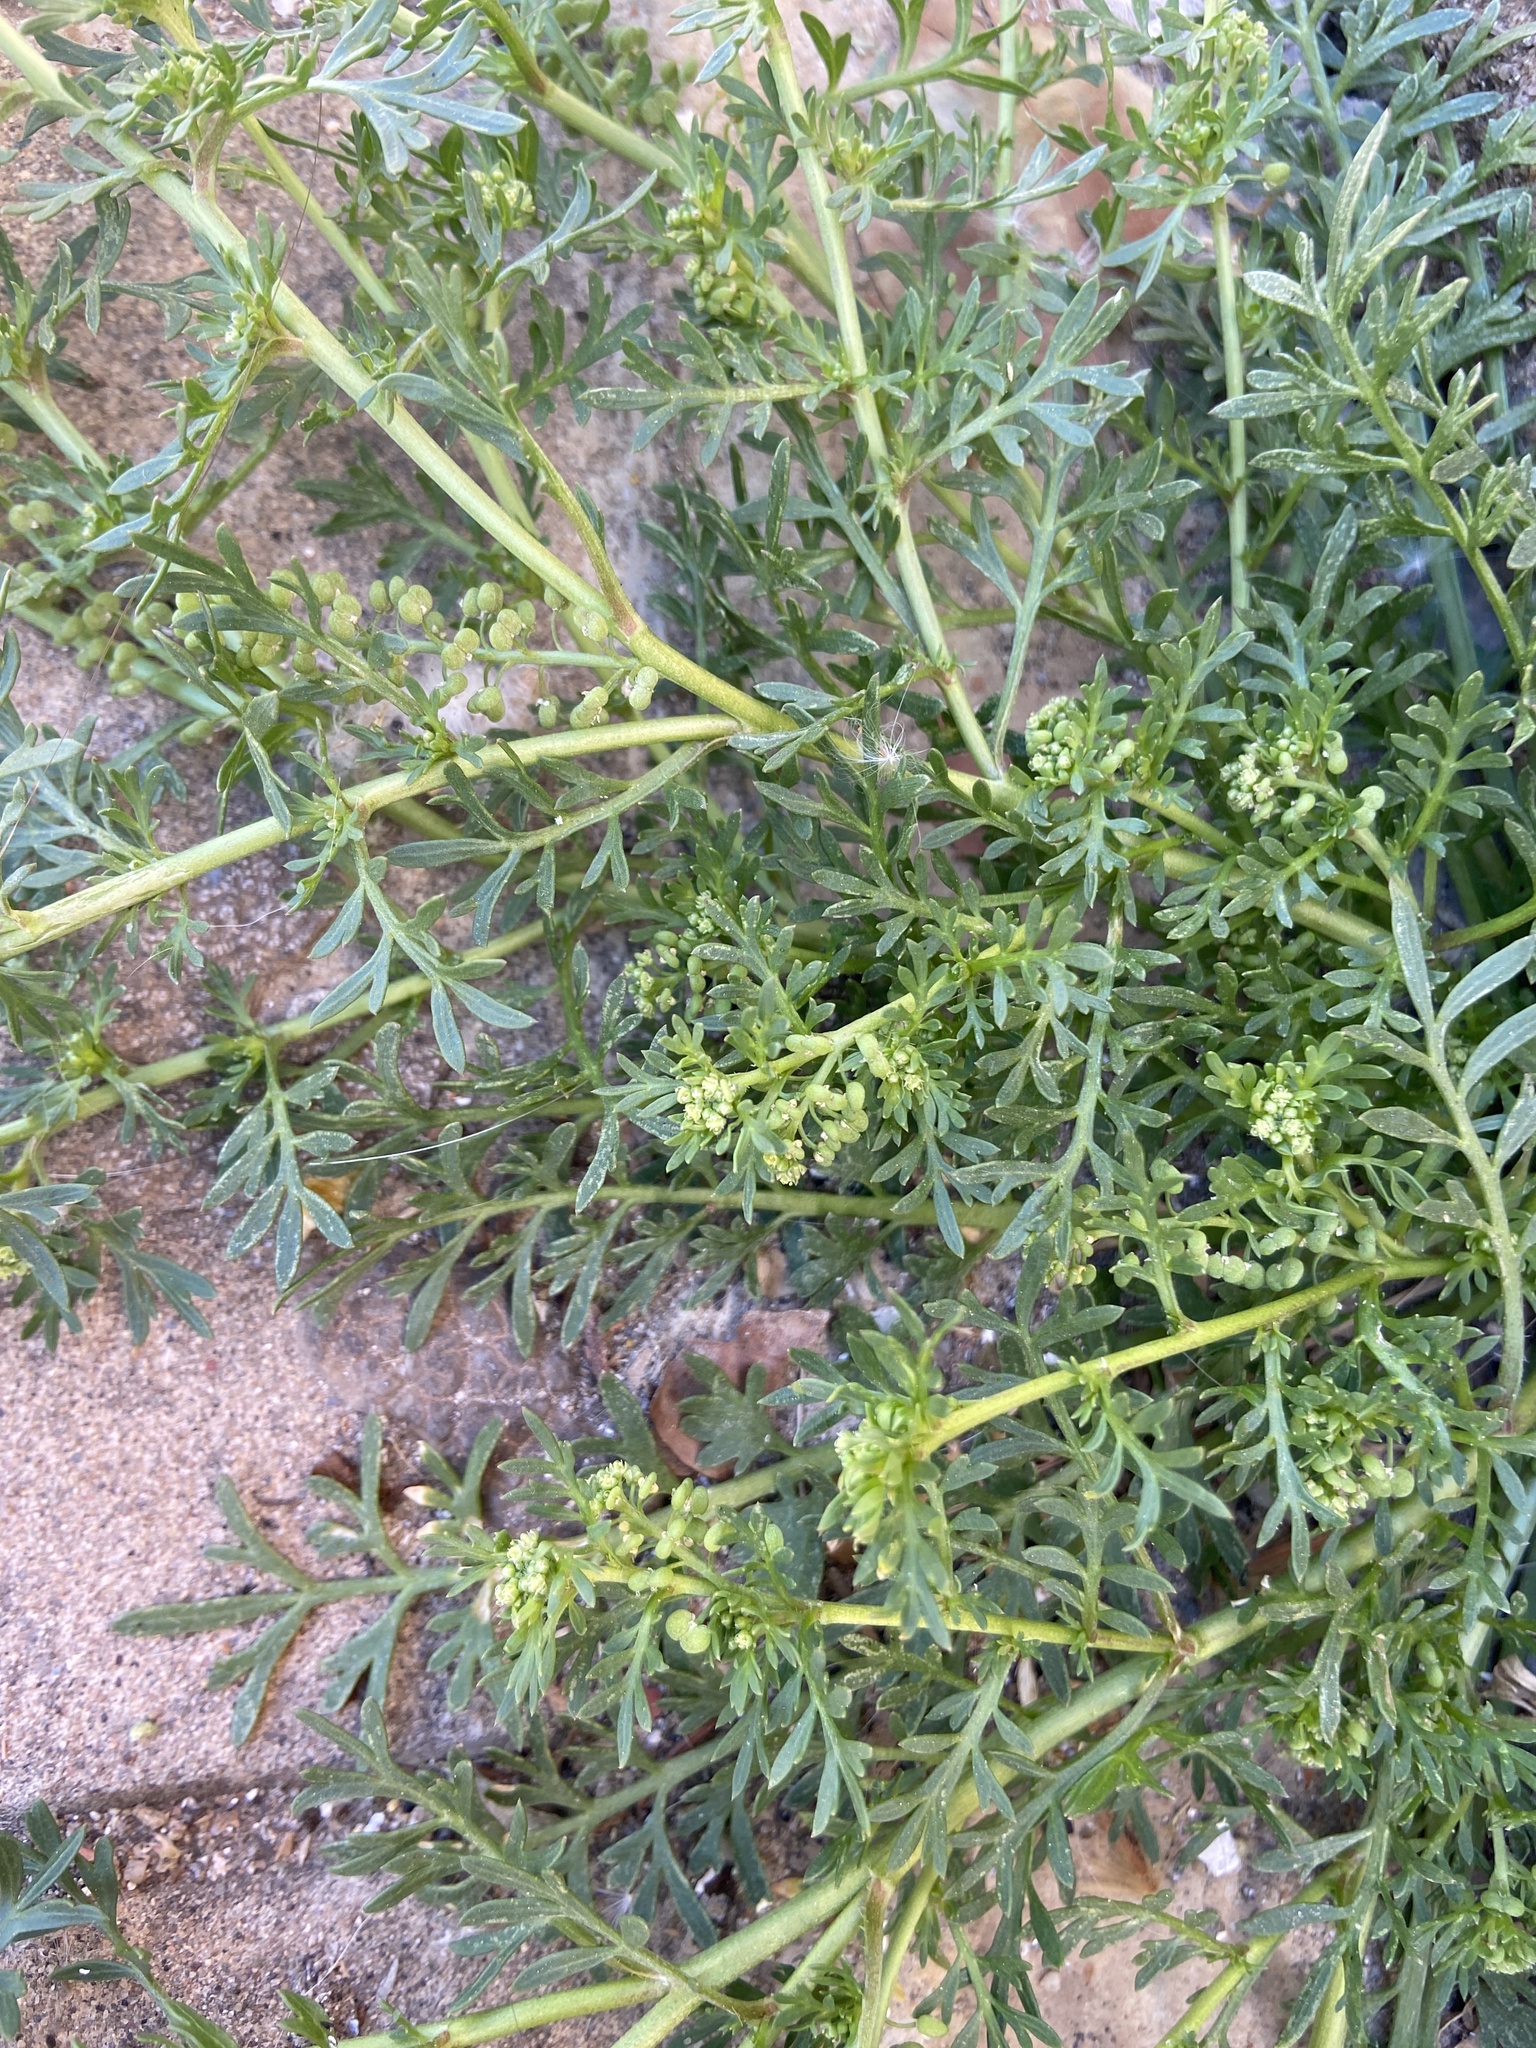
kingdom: Plantae
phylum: Tracheophyta
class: Magnoliopsida
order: Brassicales
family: Brassicaceae
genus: Lepidium
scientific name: Lepidium didymum
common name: Lesser swinecress
